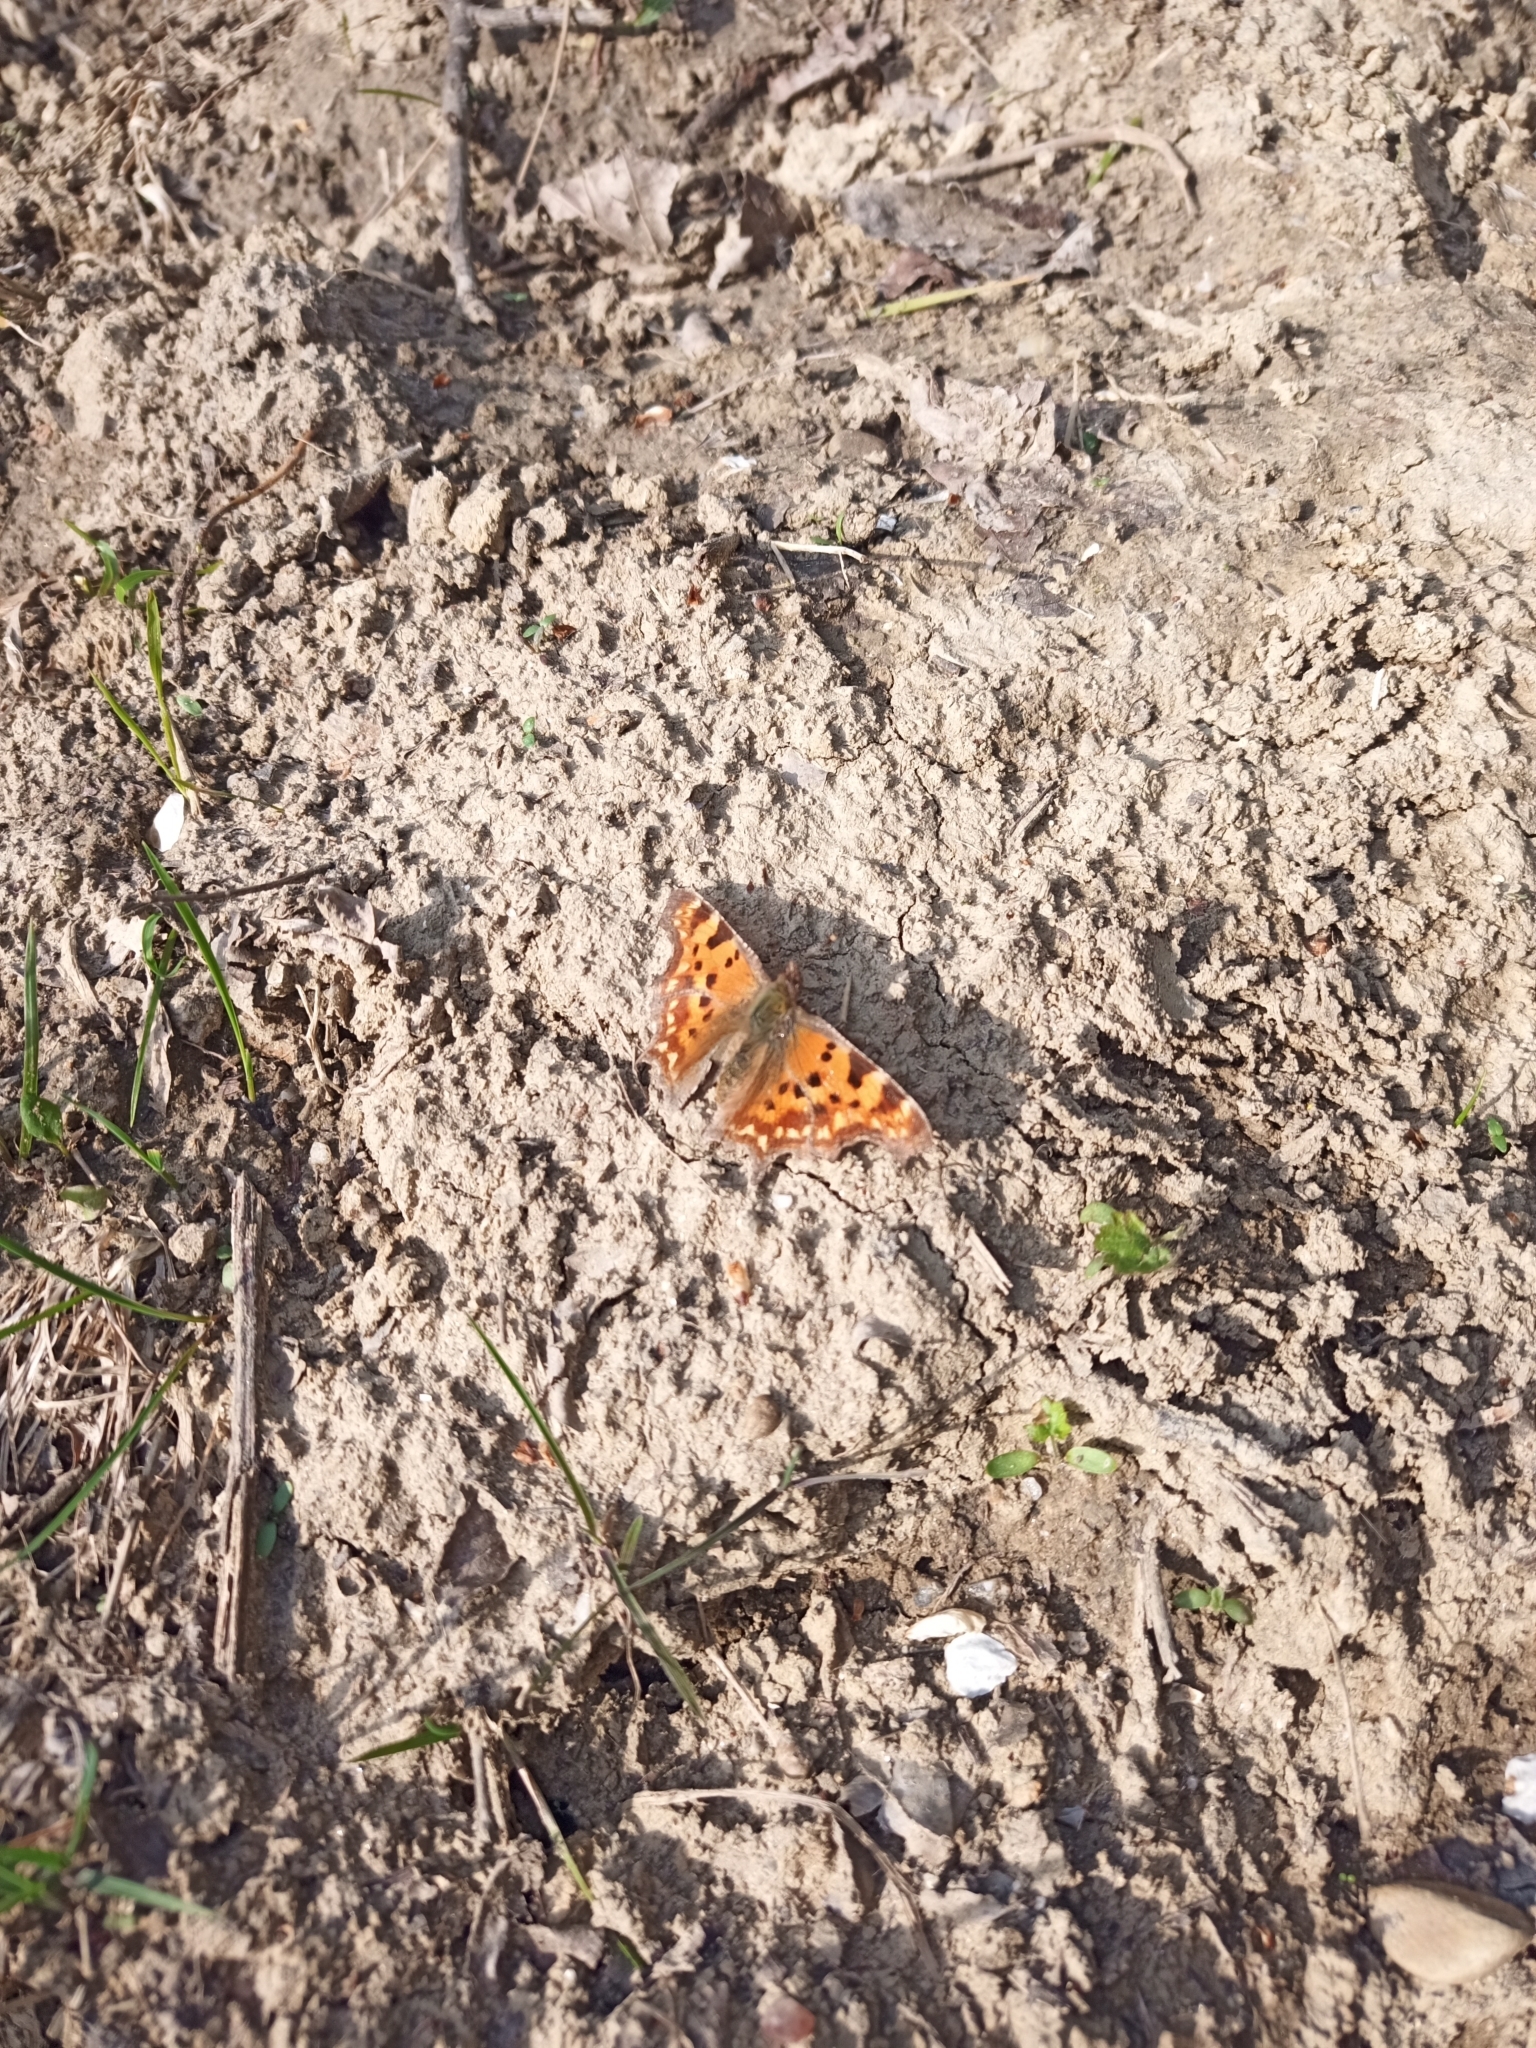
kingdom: Animalia
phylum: Arthropoda
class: Insecta
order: Lepidoptera
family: Nymphalidae
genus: Polygonia
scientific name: Polygonia c-album
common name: Comma
